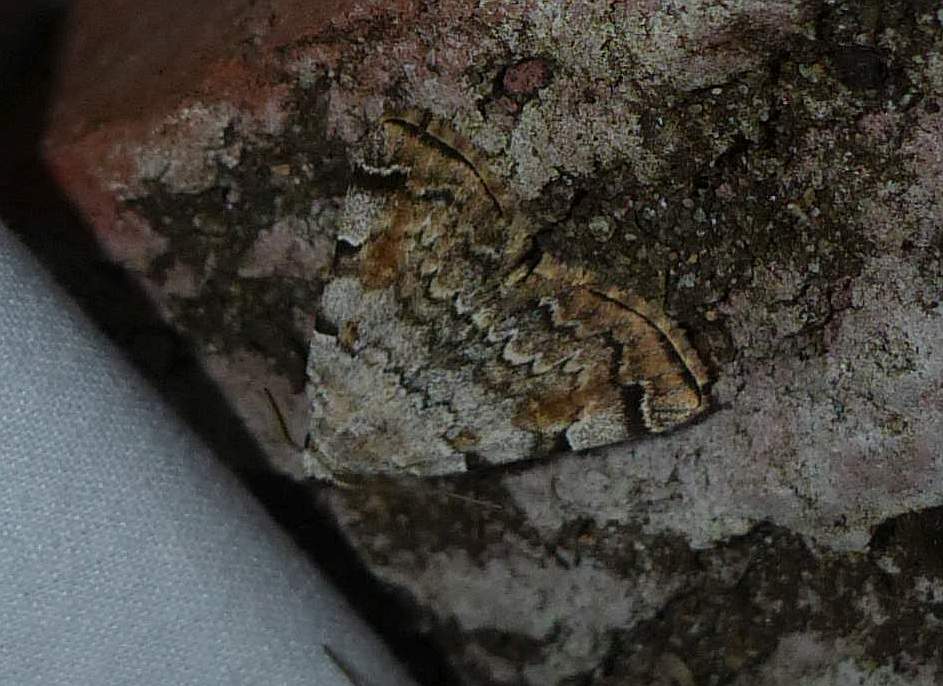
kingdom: Animalia
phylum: Arthropoda
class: Insecta
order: Lepidoptera
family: Erebidae
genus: Idia
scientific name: Idia americalis
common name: American idia moth
